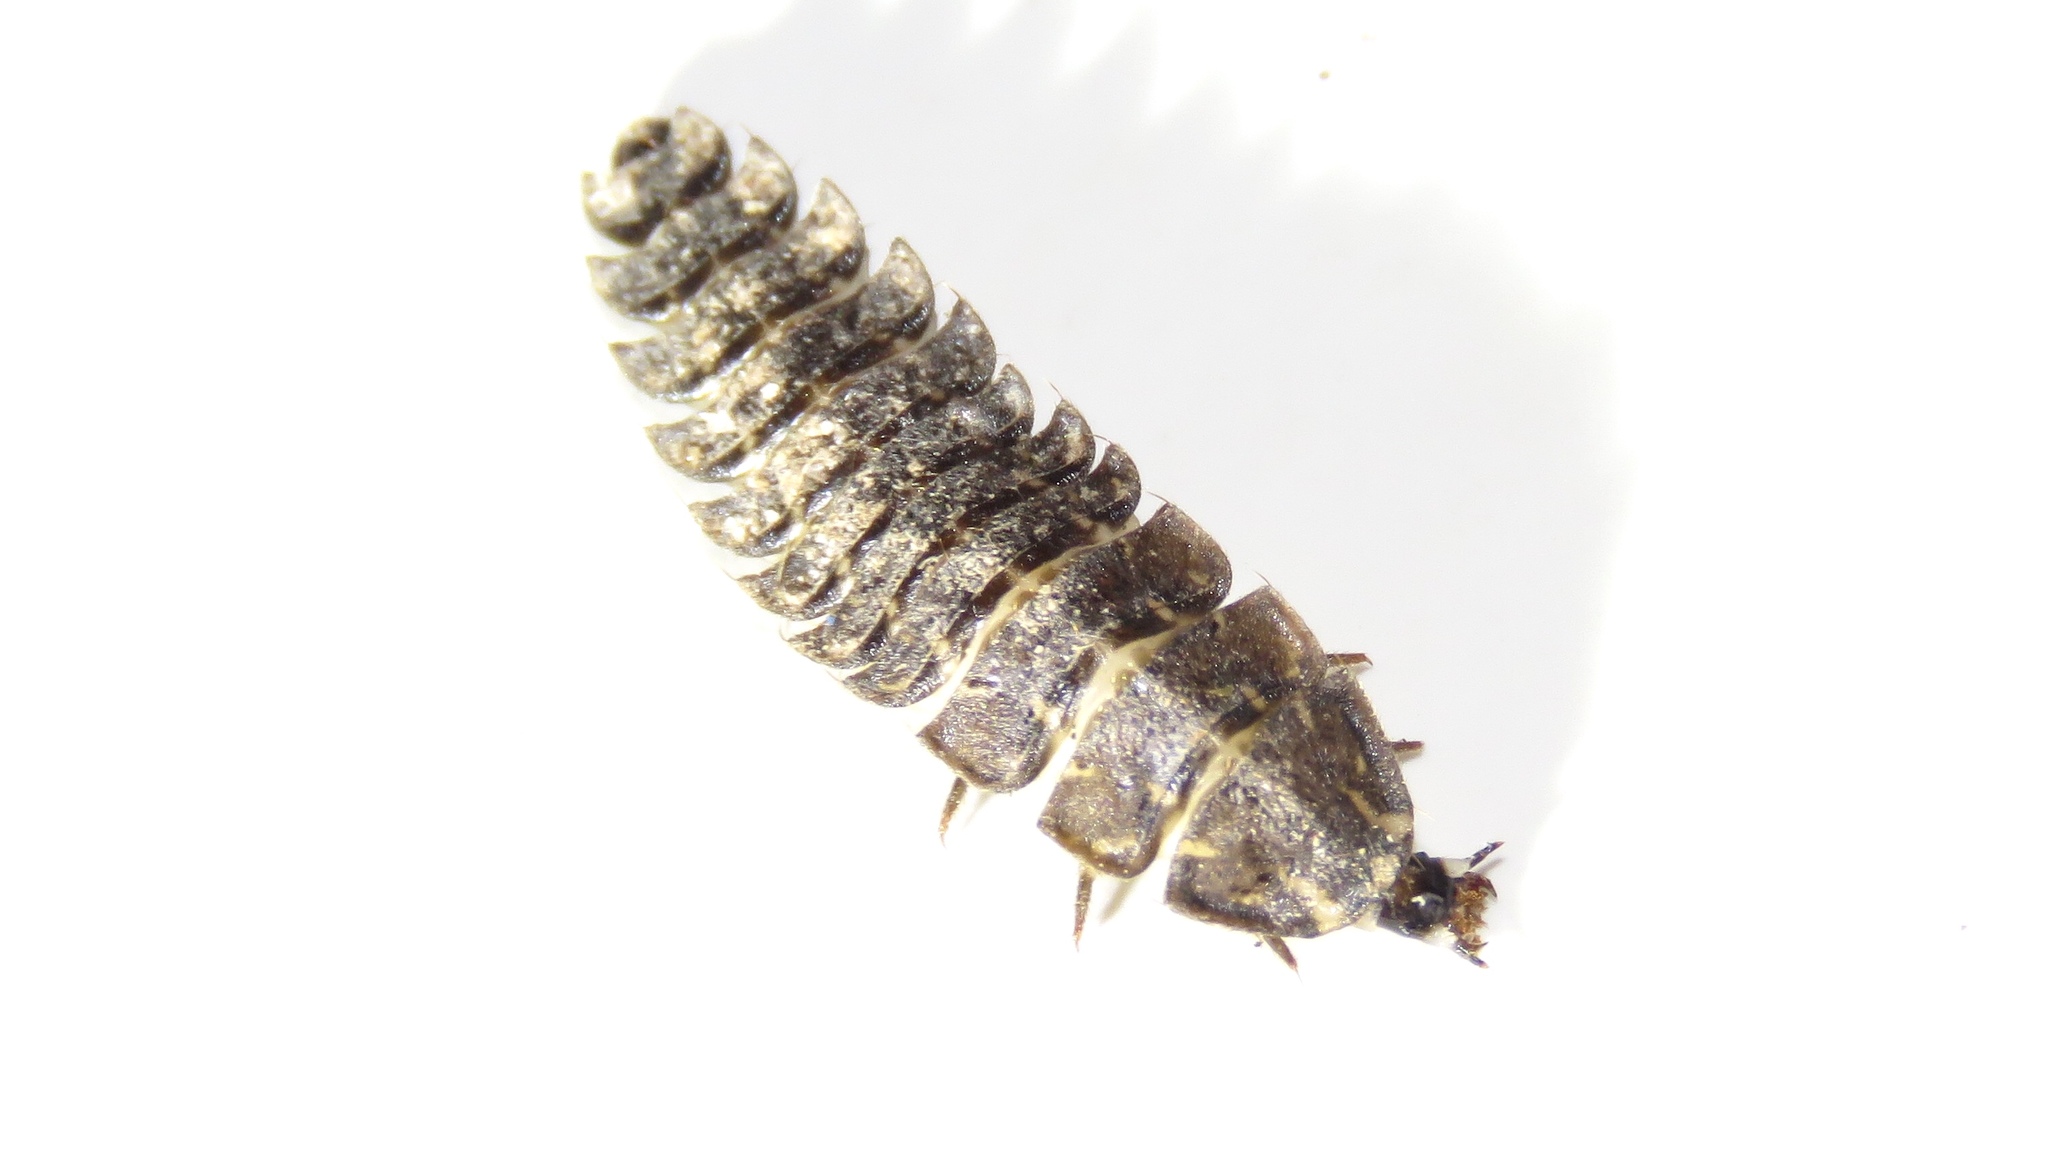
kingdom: Animalia
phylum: Arthropoda
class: Insecta
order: Coleoptera
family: Lampyridae
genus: Photuris
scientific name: Photuris
